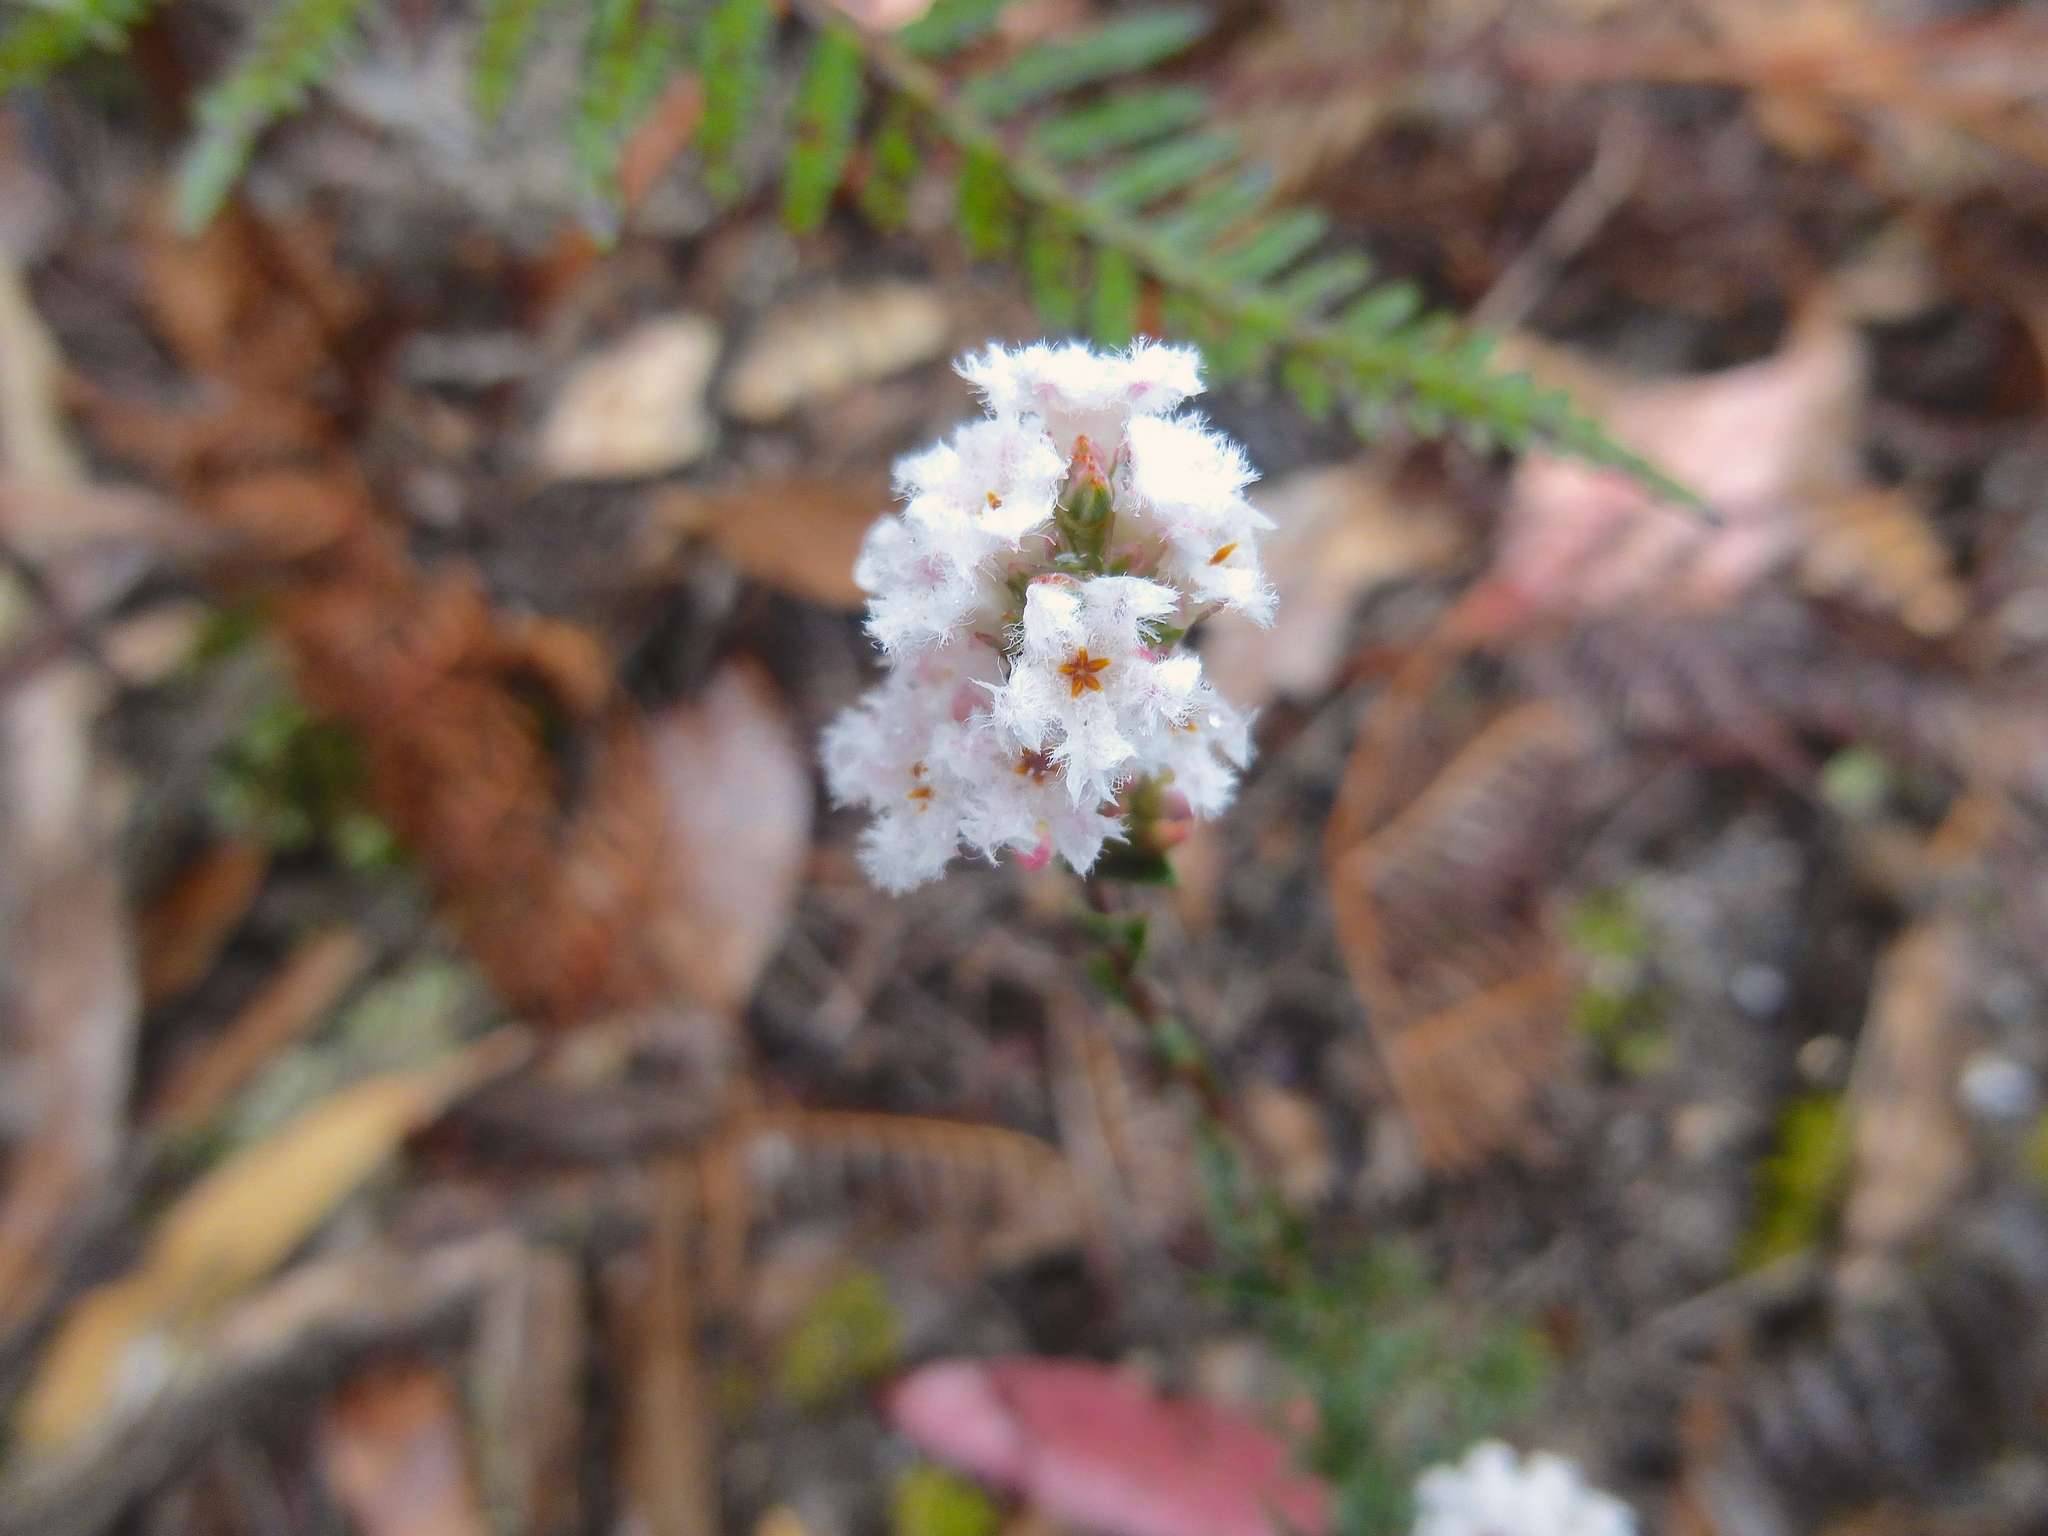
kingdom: Plantae
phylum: Tracheophyta
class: Magnoliopsida
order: Ericales
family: Ericaceae
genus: Leucopogon
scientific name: Leucopogon virgatus
